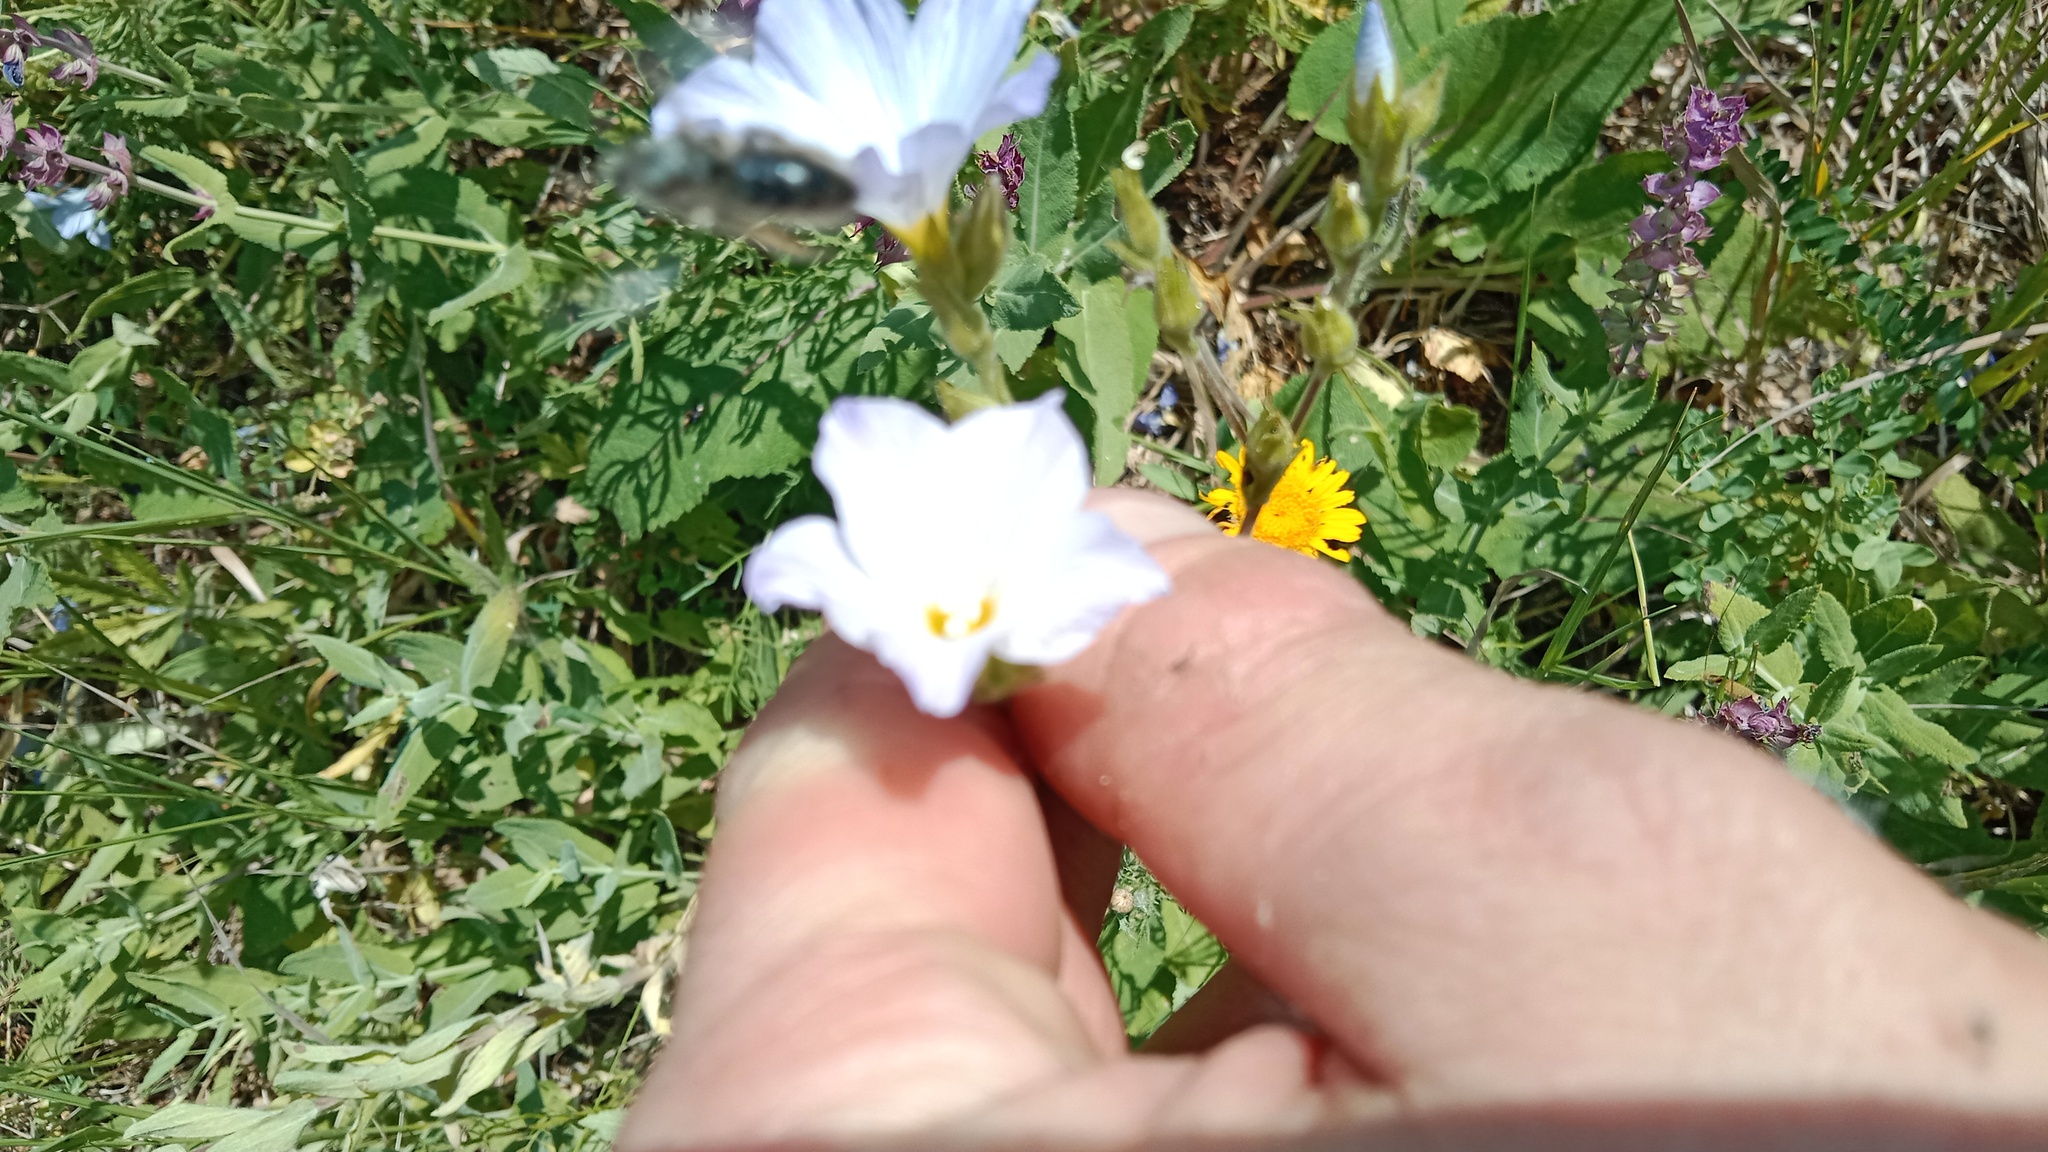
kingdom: Plantae
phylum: Tracheophyta
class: Magnoliopsida
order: Malpighiales
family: Linaceae
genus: Linum
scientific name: Linum hirsutum
